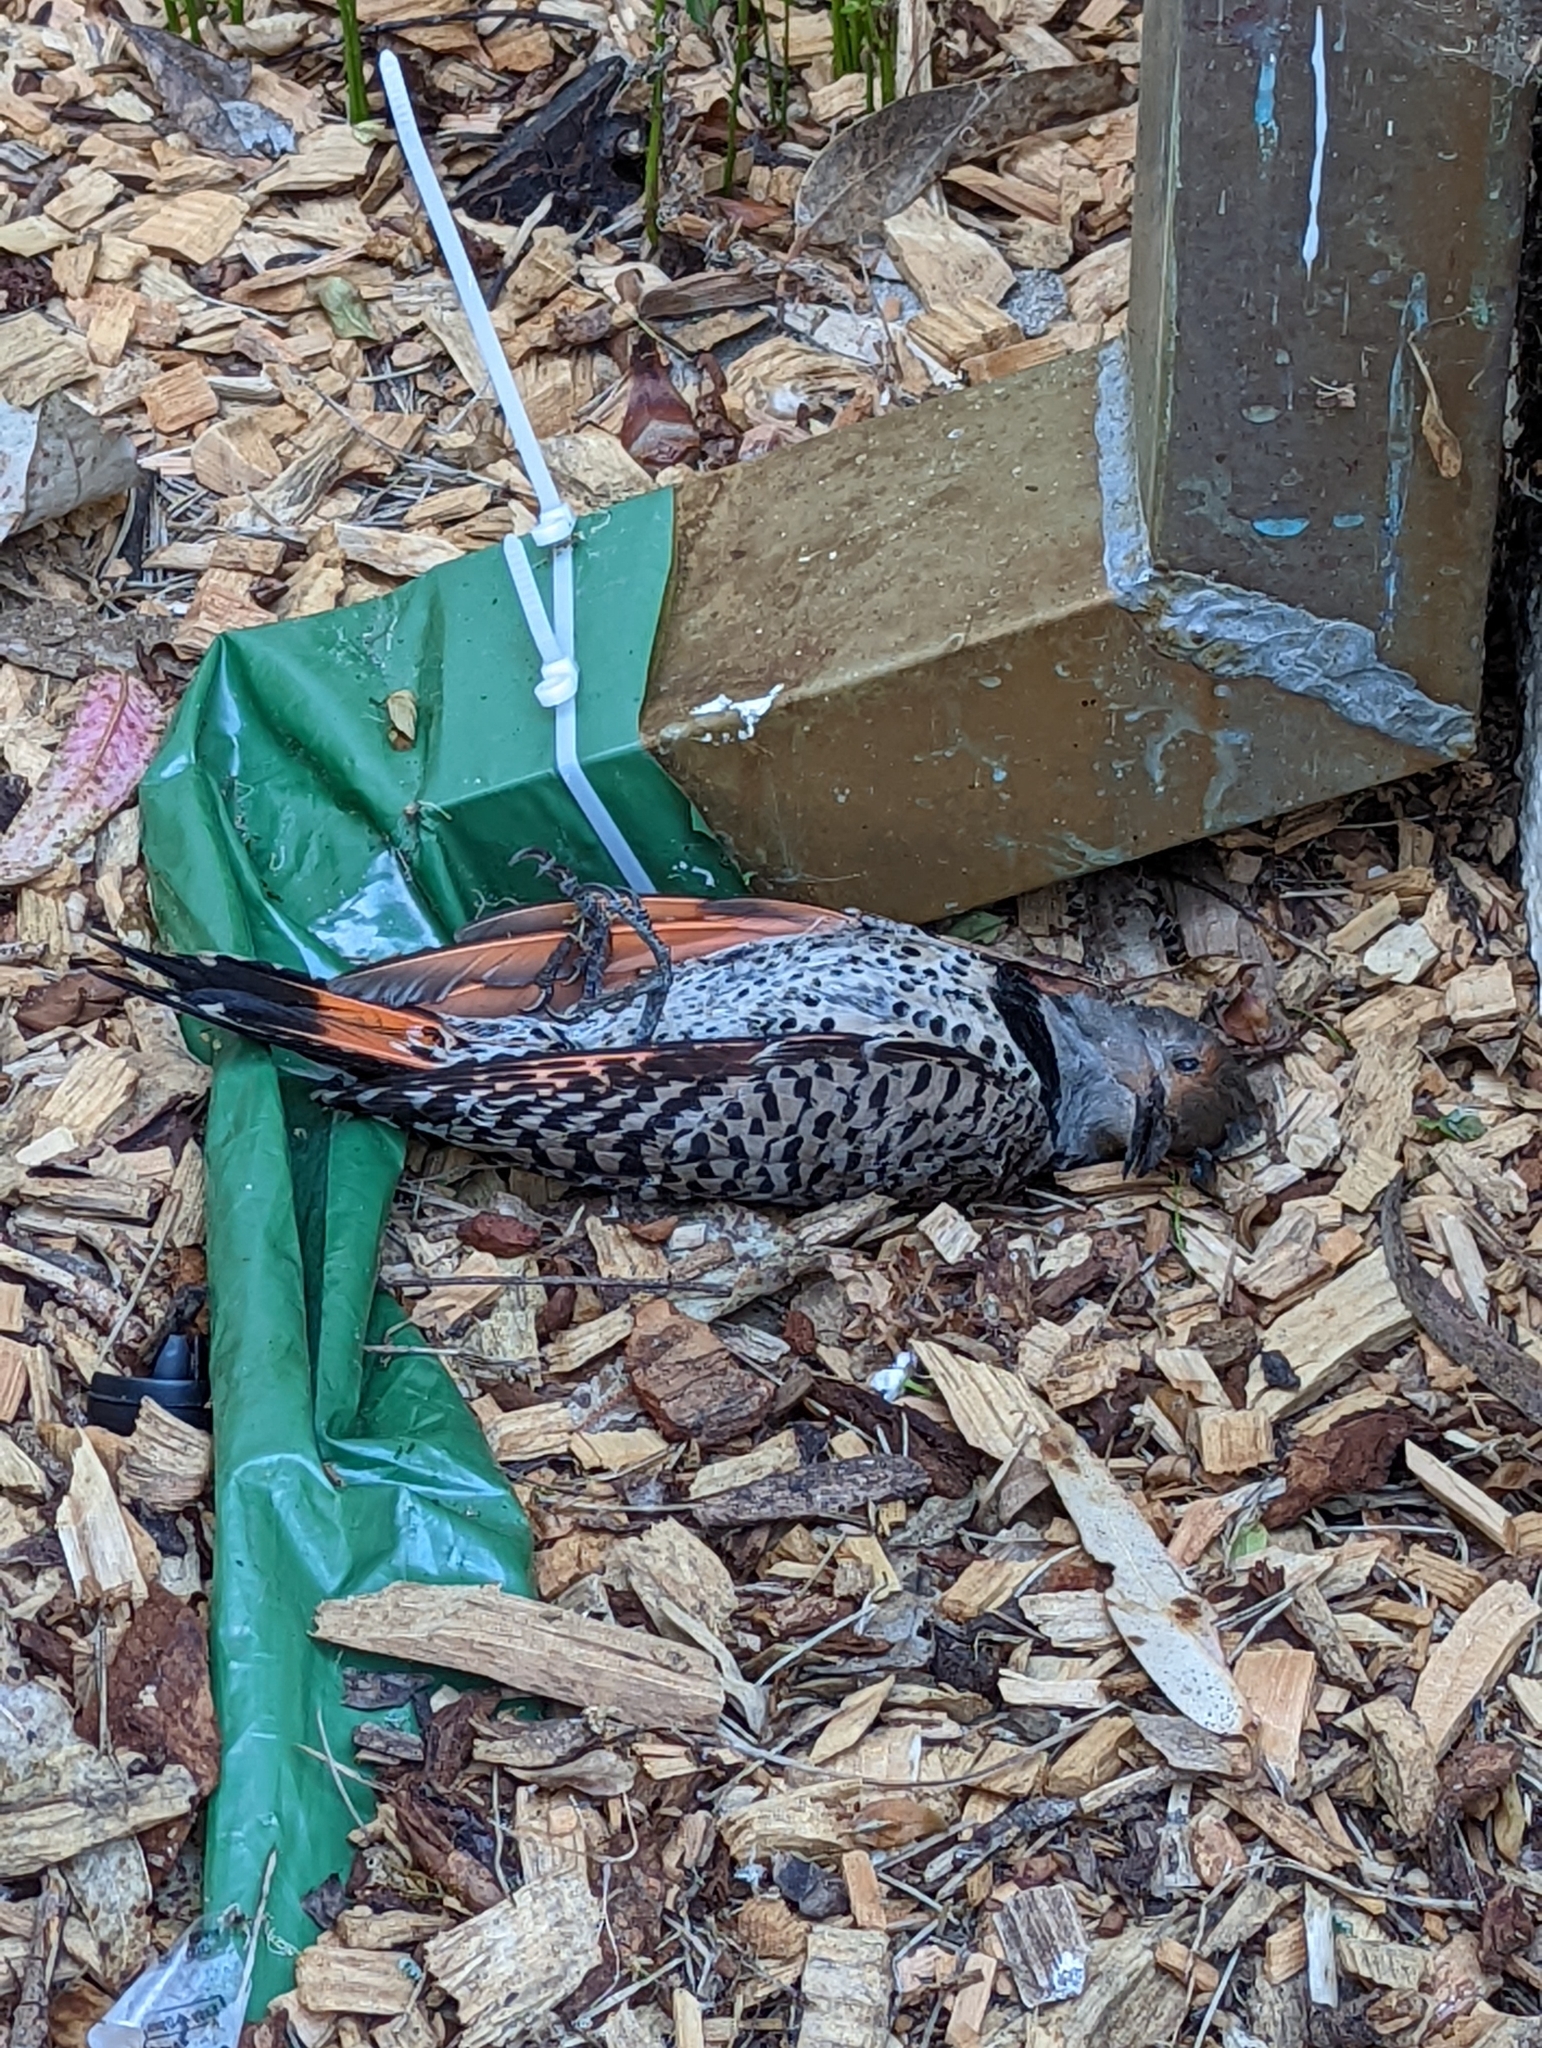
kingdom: Animalia
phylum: Chordata
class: Aves
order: Piciformes
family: Picidae
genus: Colaptes
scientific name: Colaptes auratus
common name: Northern flicker
